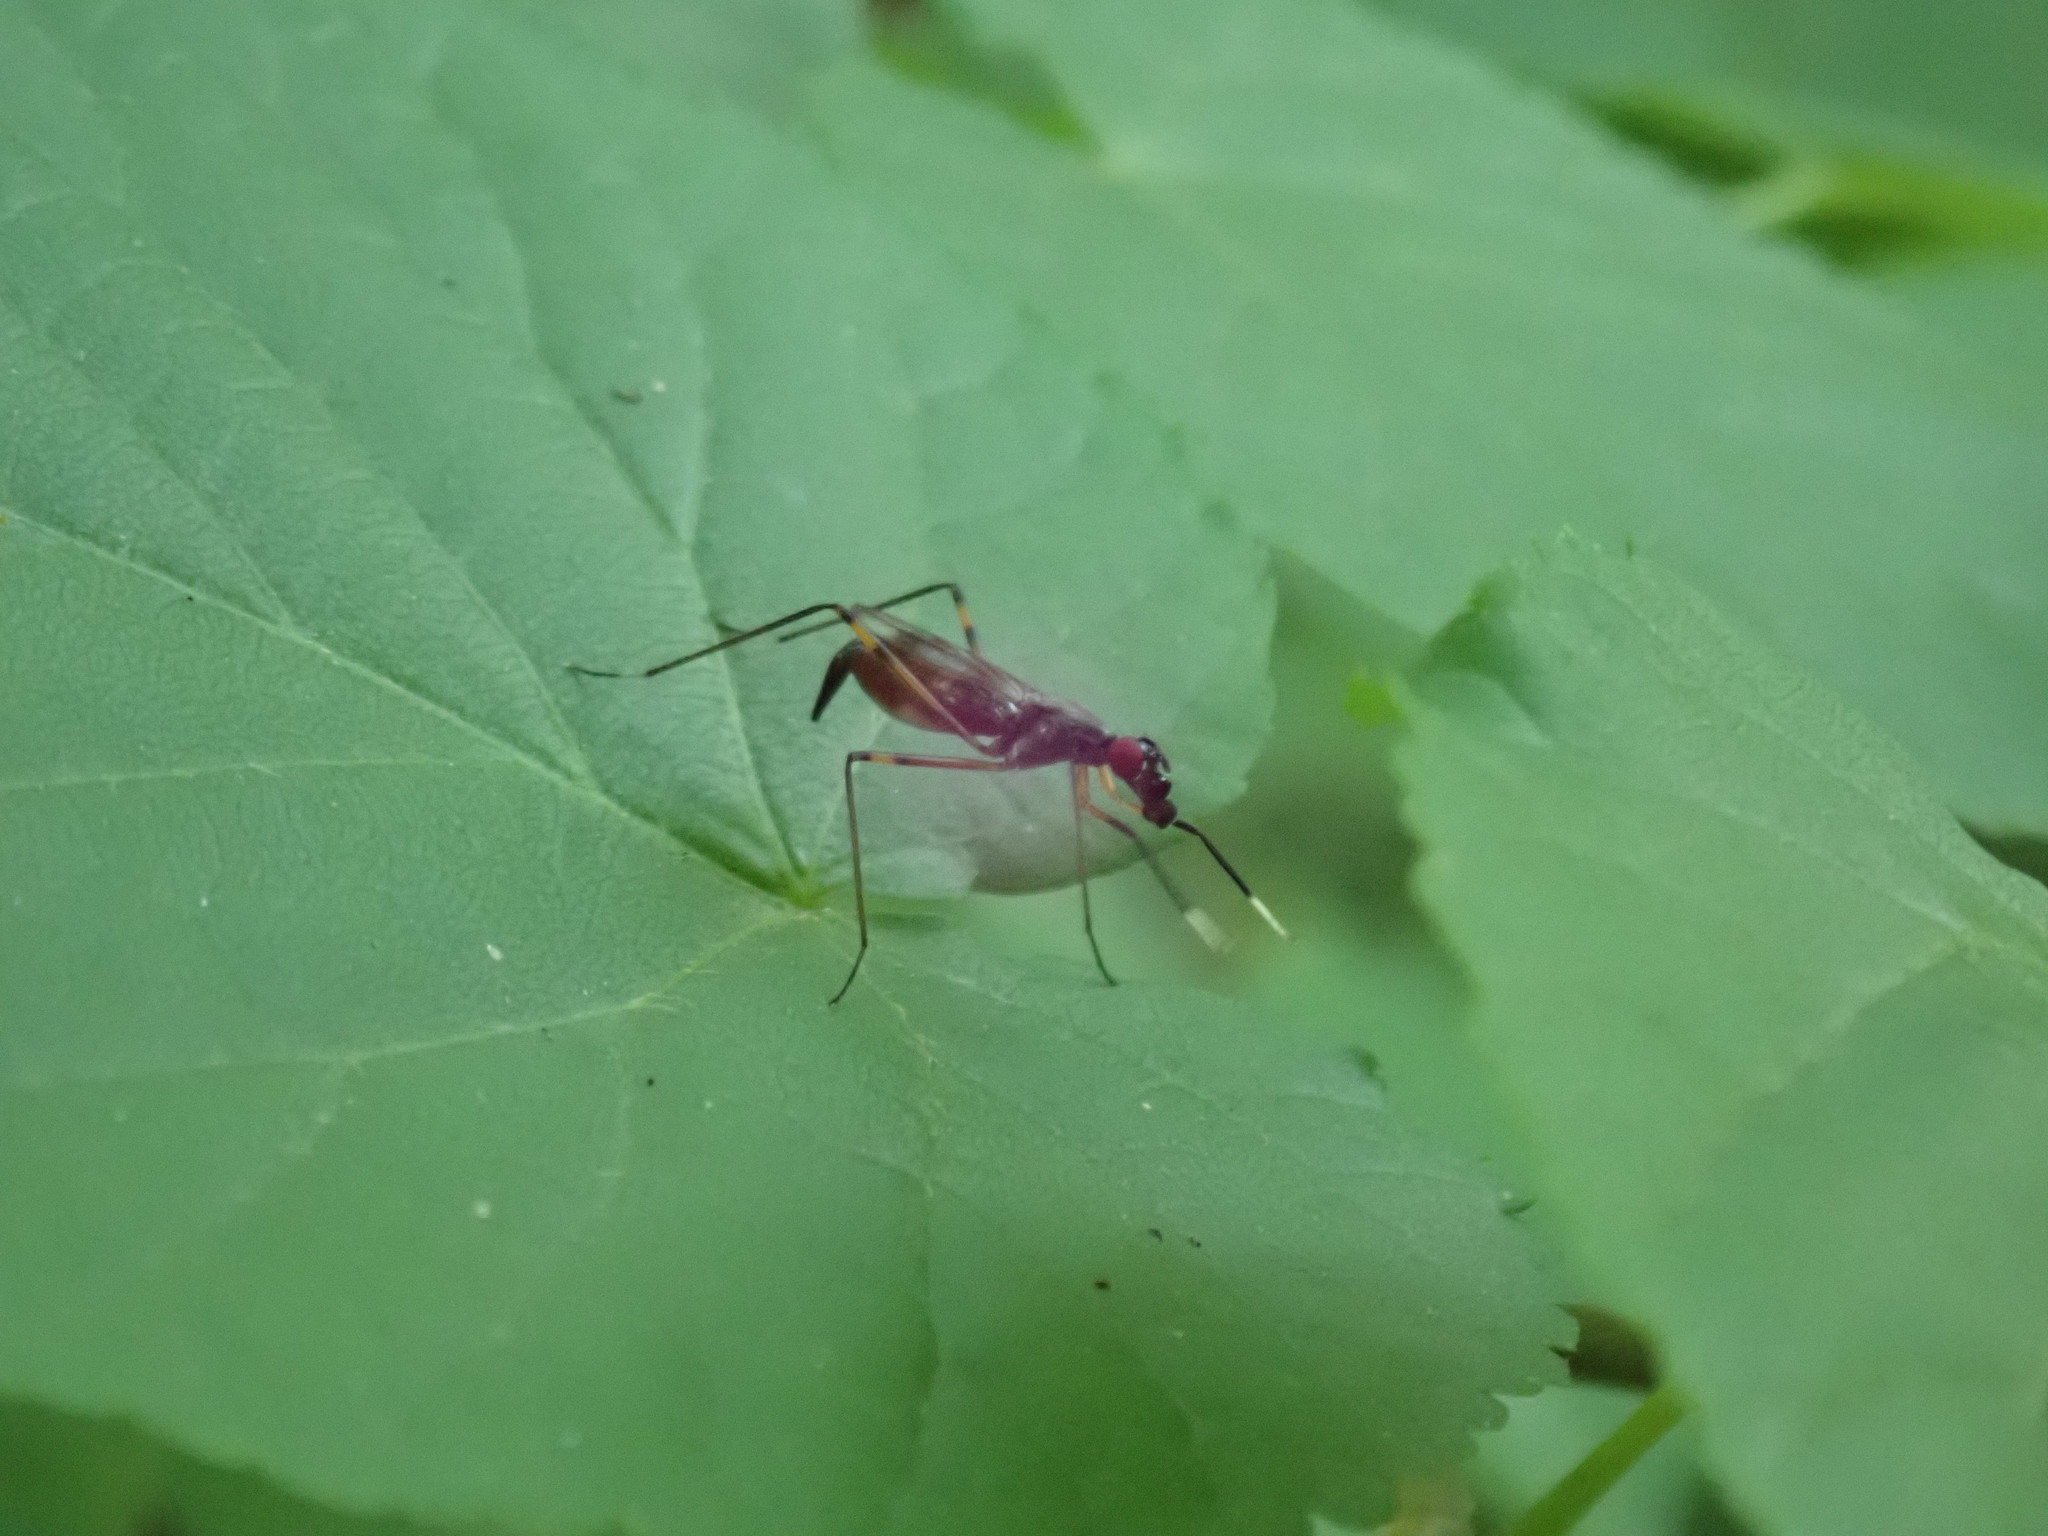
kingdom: Animalia
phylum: Arthropoda
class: Insecta
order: Diptera
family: Micropezidae
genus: Rainieria
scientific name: Rainieria antennaepes
